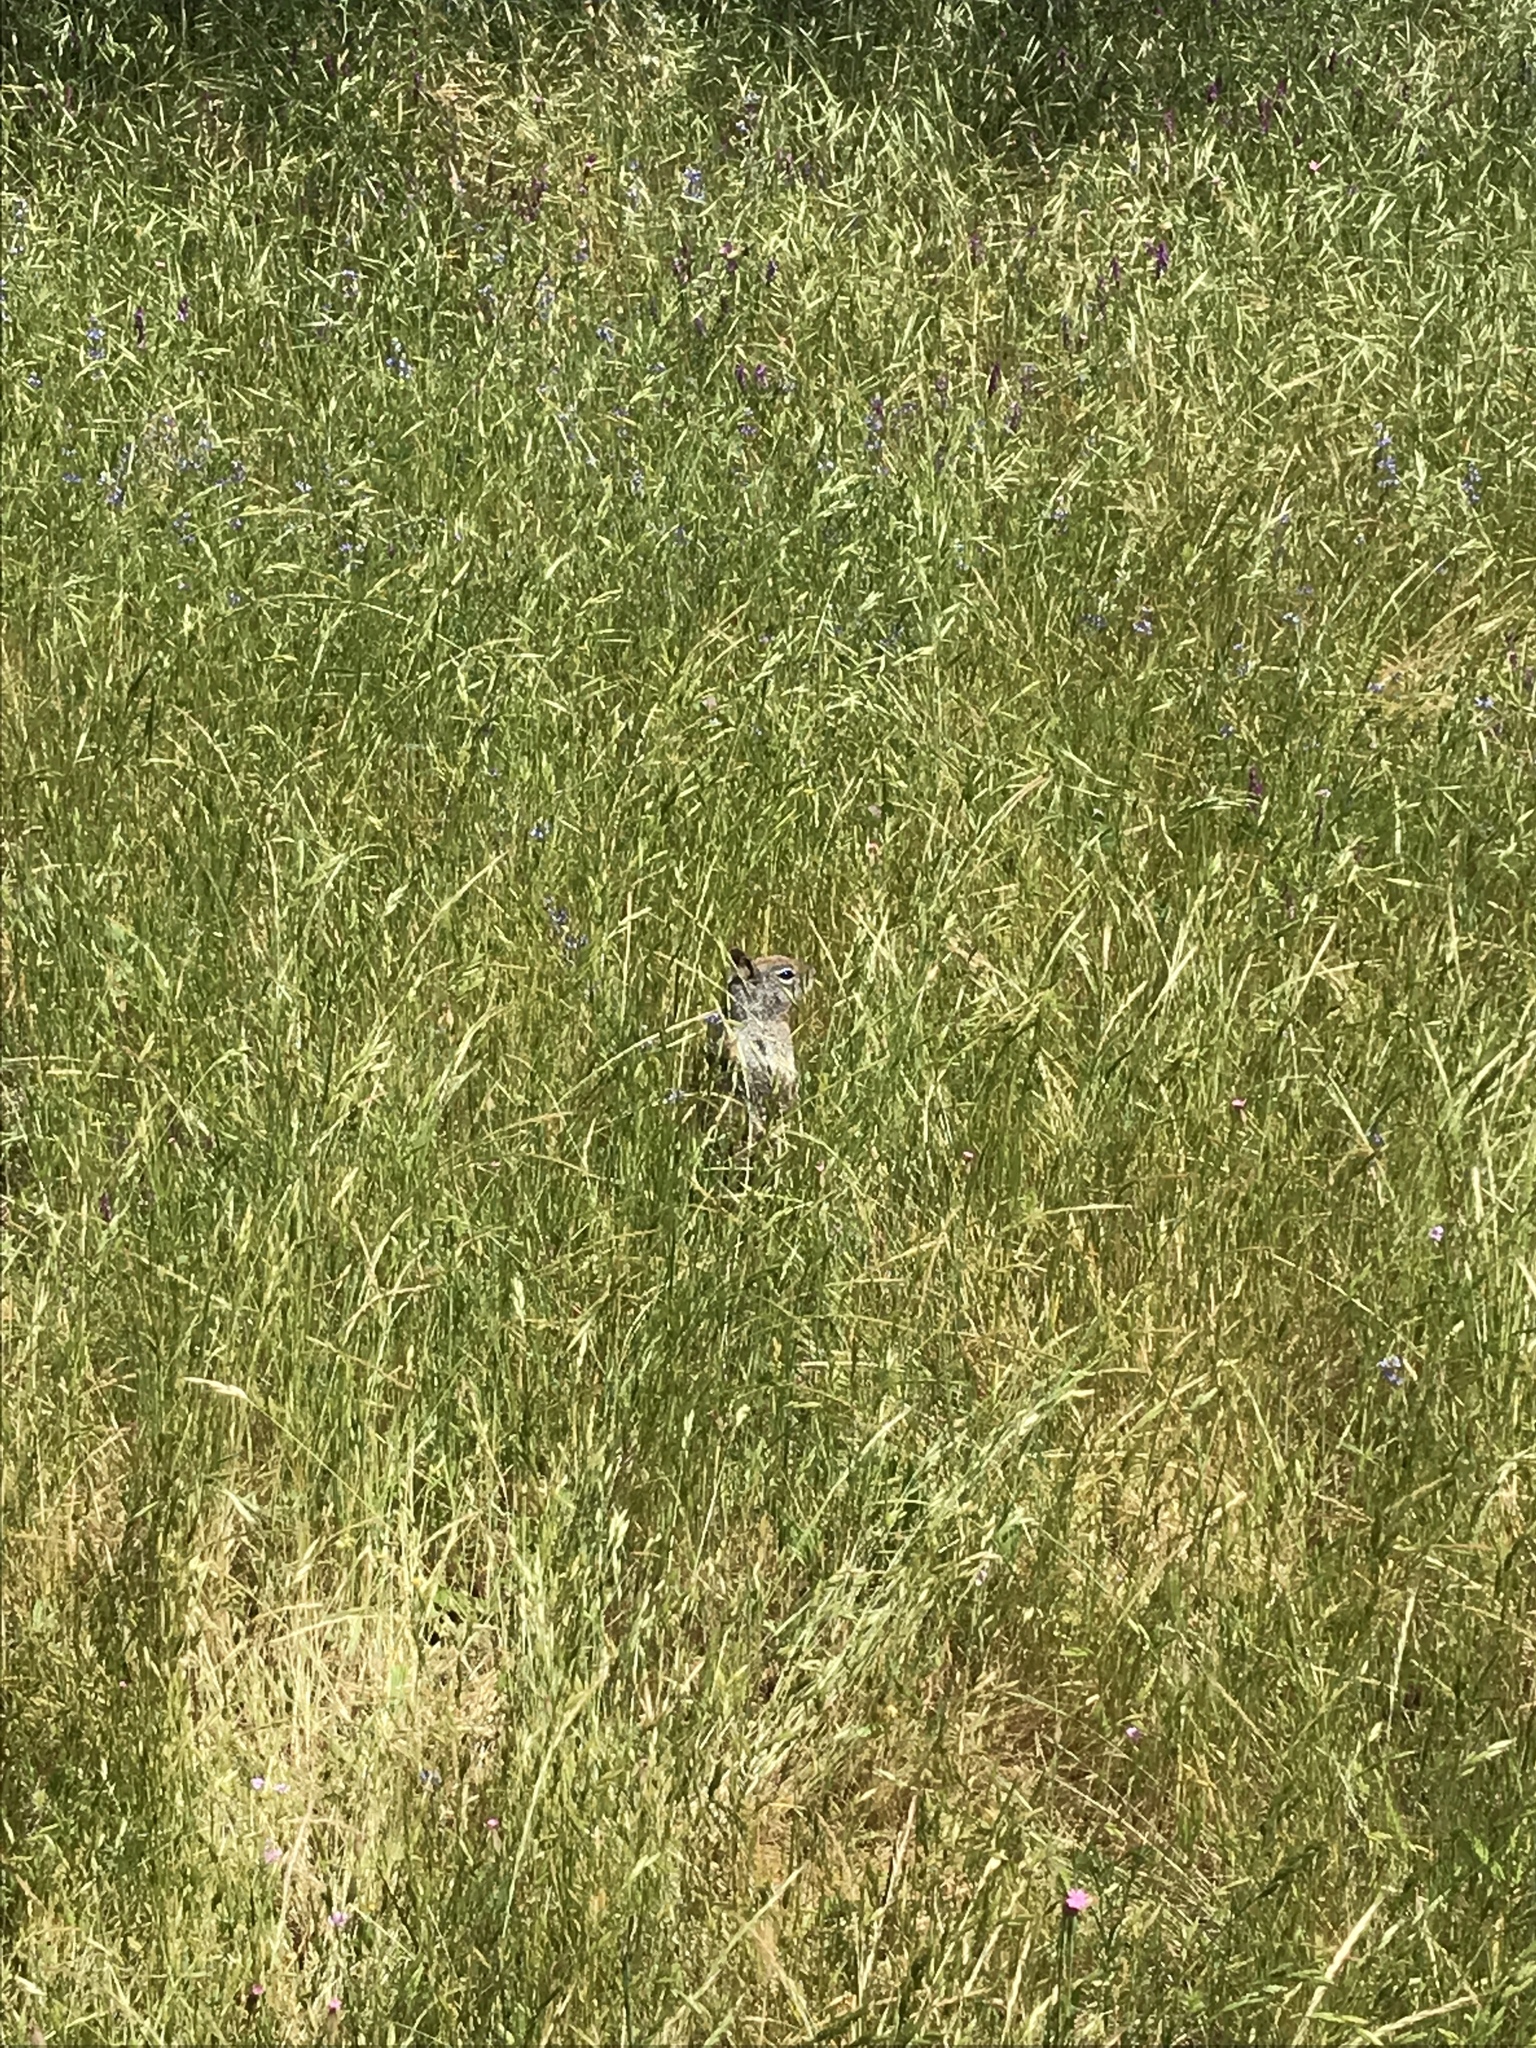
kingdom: Animalia
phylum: Chordata
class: Mammalia
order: Rodentia
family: Sciuridae
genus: Otospermophilus
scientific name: Otospermophilus beecheyi
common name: California ground squirrel
